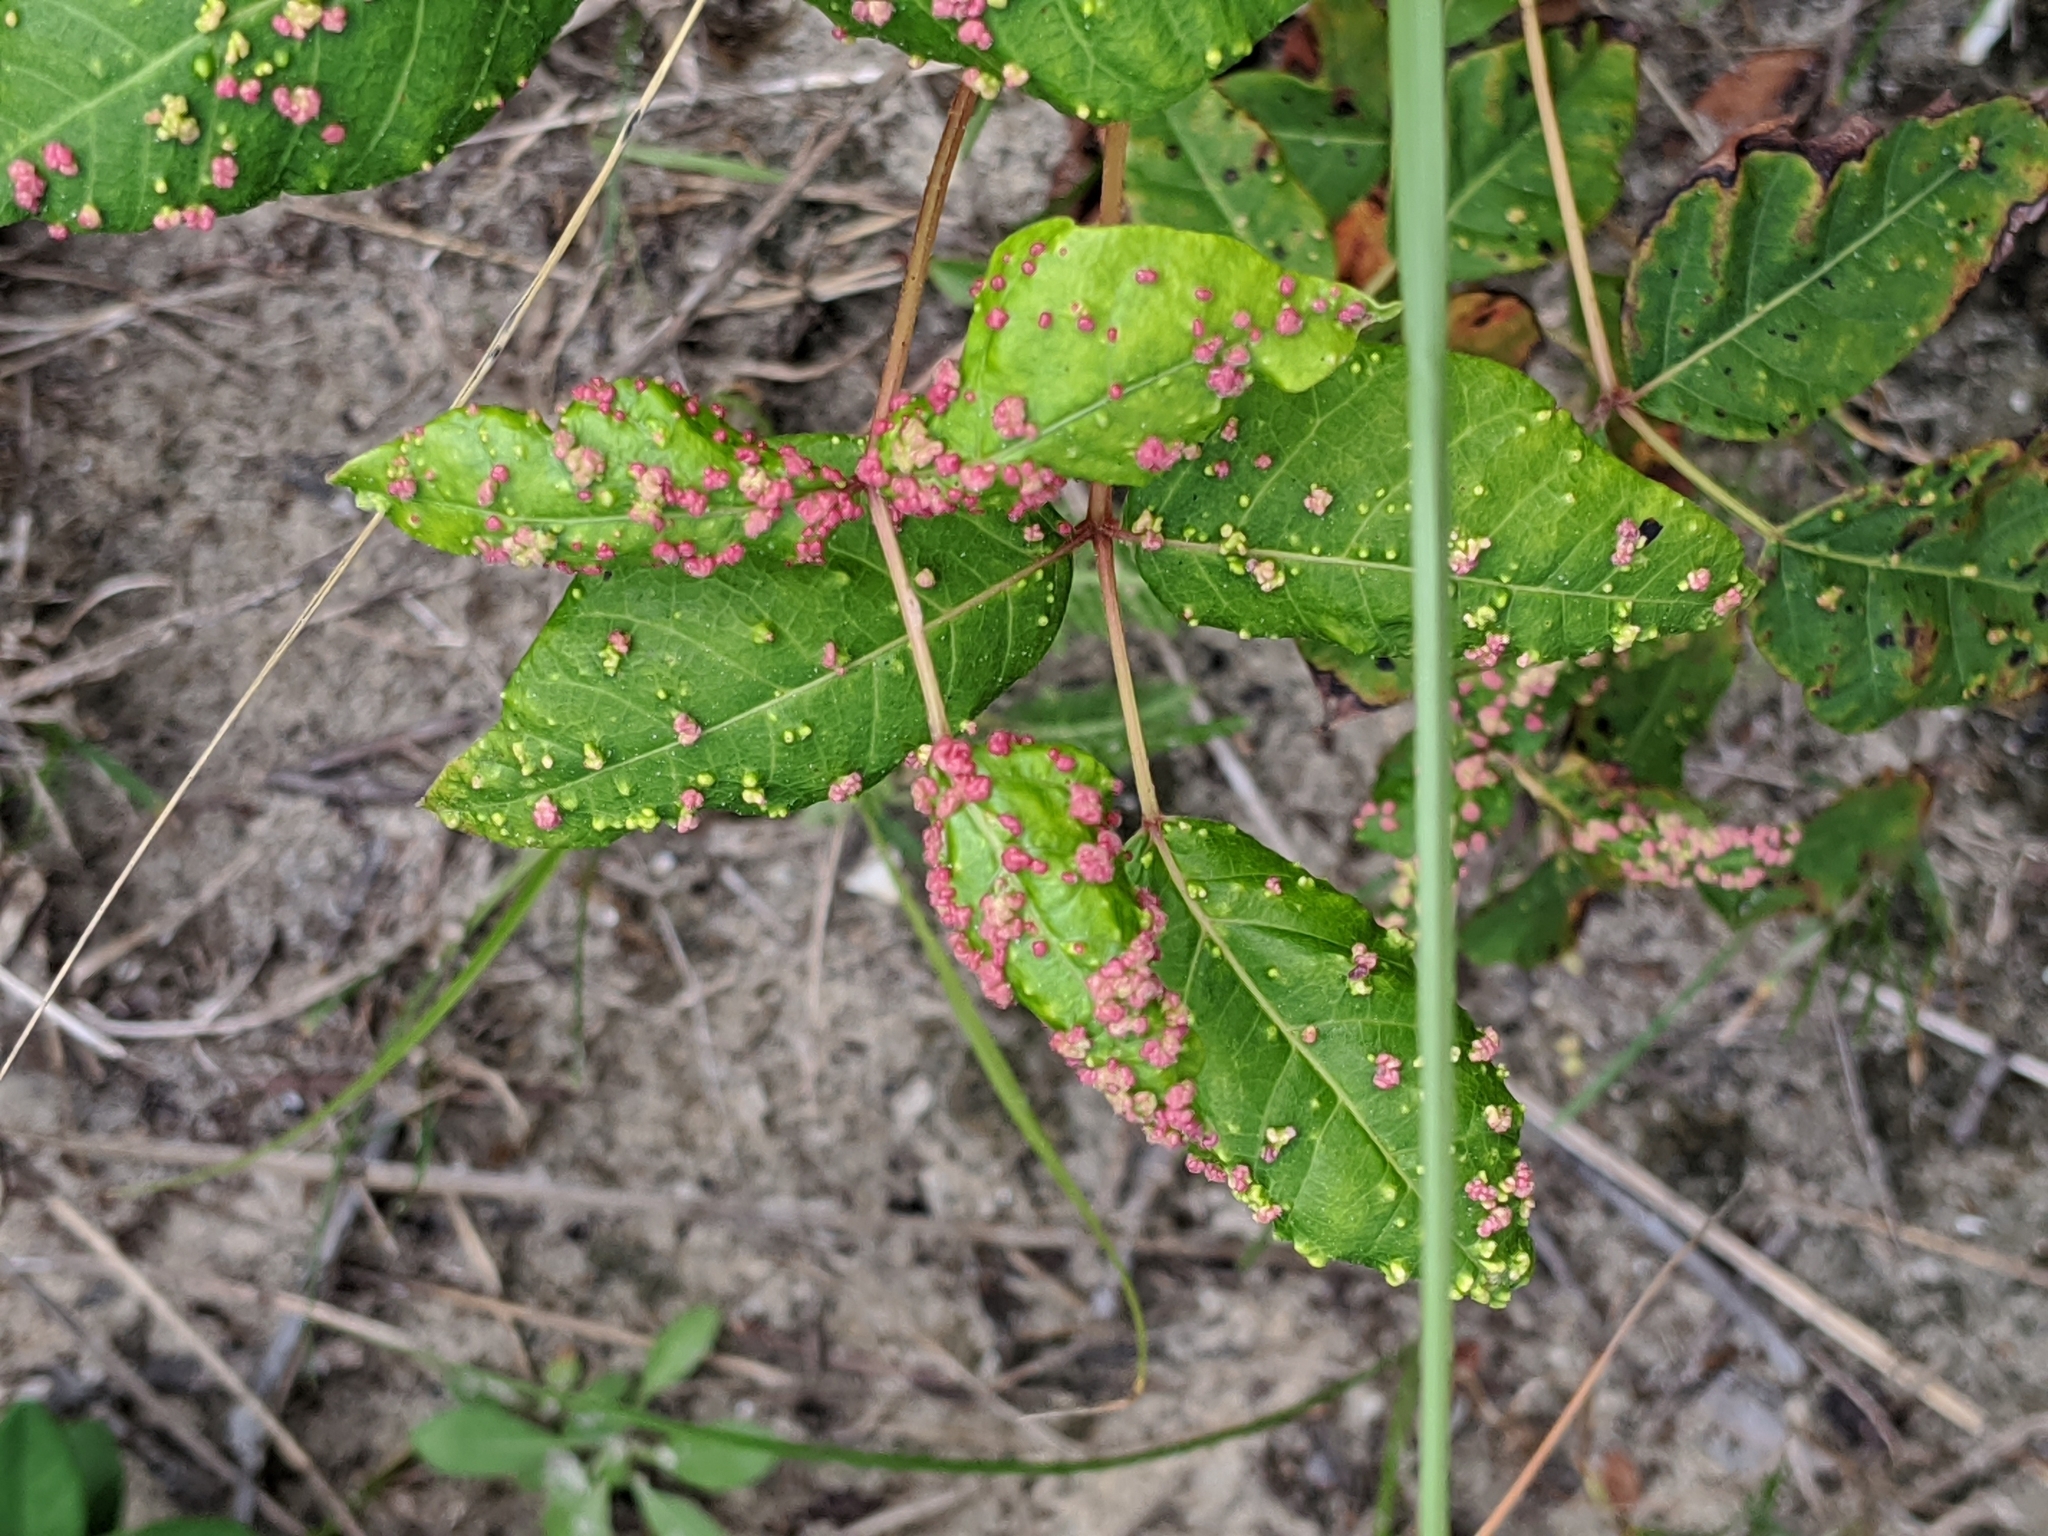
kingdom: Animalia
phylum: Arthropoda
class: Arachnida
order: Trombidiformes
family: Eriophyidae
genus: Aculops
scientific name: Aculops
